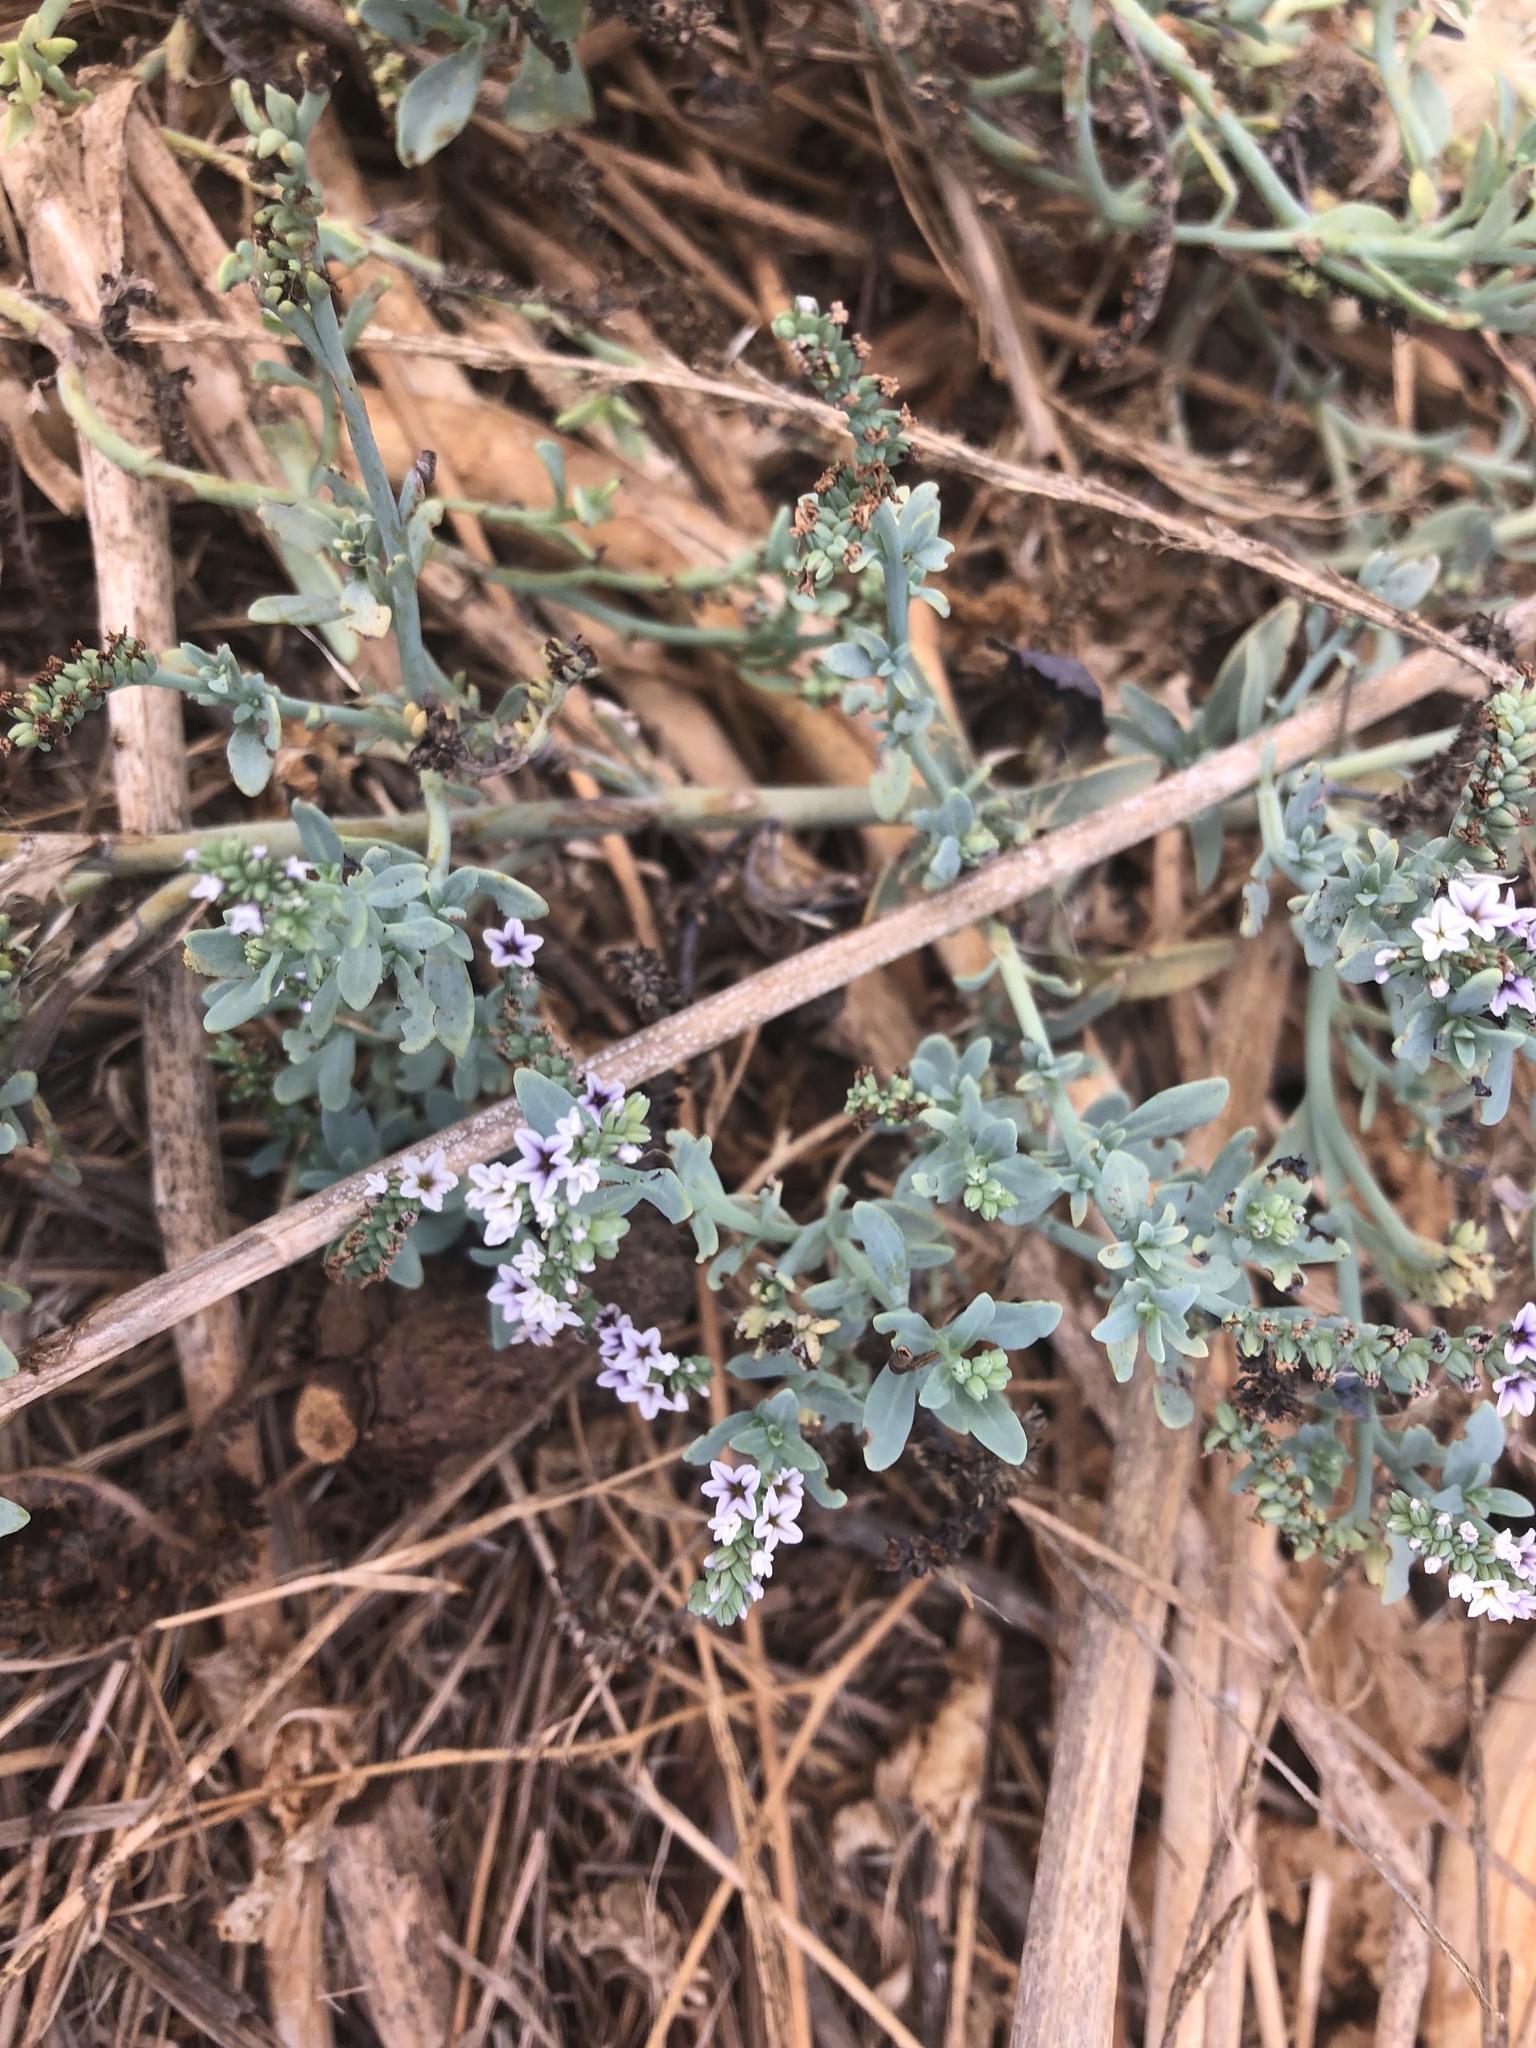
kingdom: Plantae
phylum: Tracheophyta
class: Magnoliopsida
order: Boraginales
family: Heliotropiaceae
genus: Heliotropium
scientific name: Heliotropium curassavicum
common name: Seaside heliotrope
